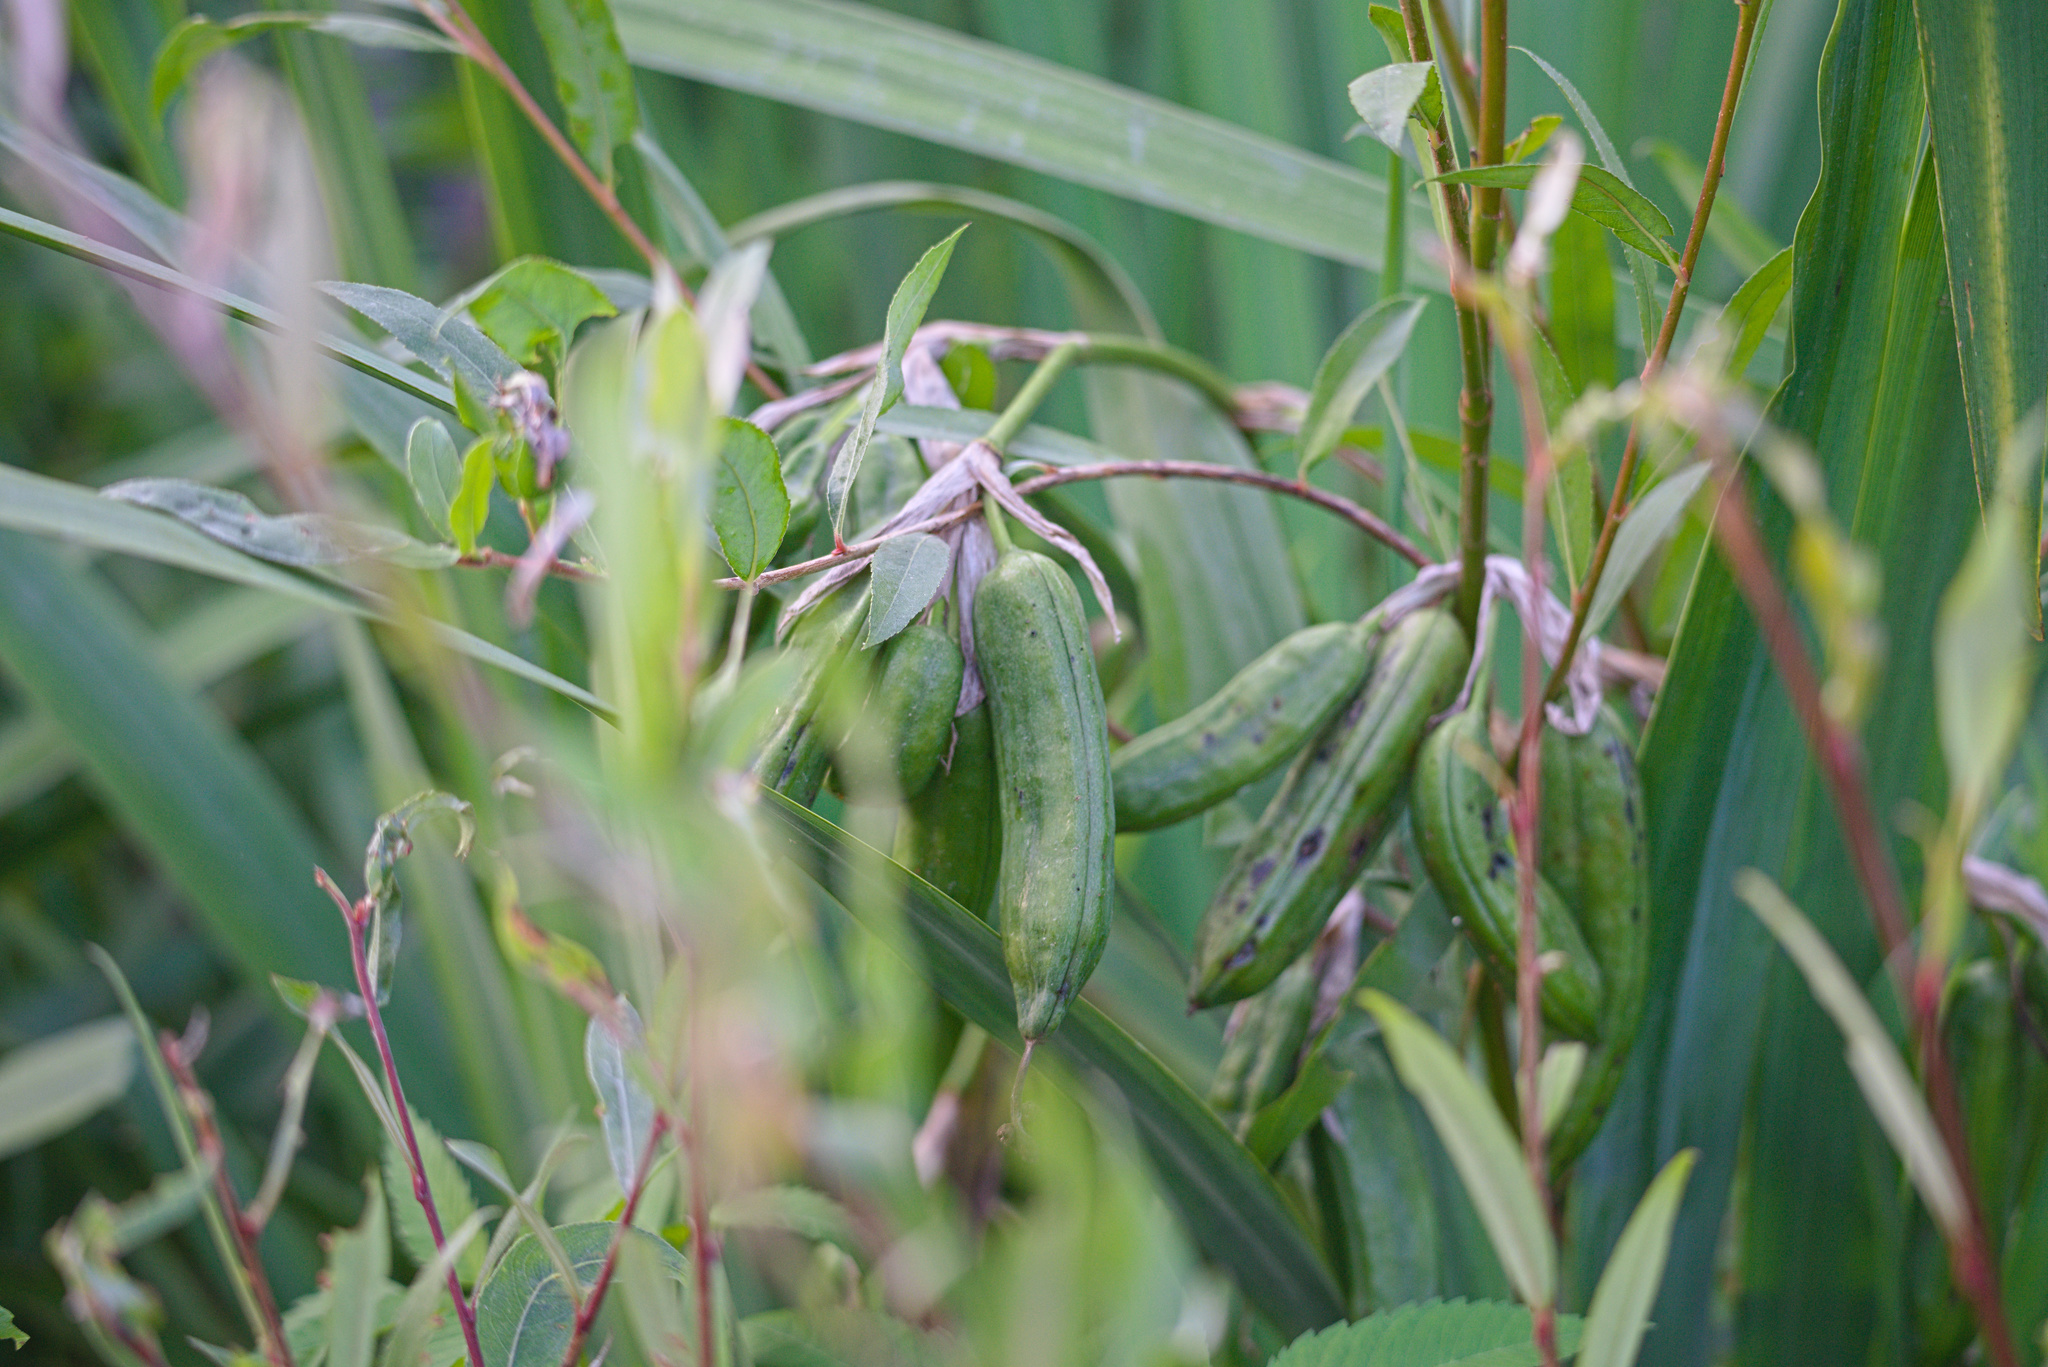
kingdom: Plantae
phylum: Tracheophyta
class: Liliopsida
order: Asparagales
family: Iridaceae
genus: Iris
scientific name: Iris pseudacorus
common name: Yellow flag
